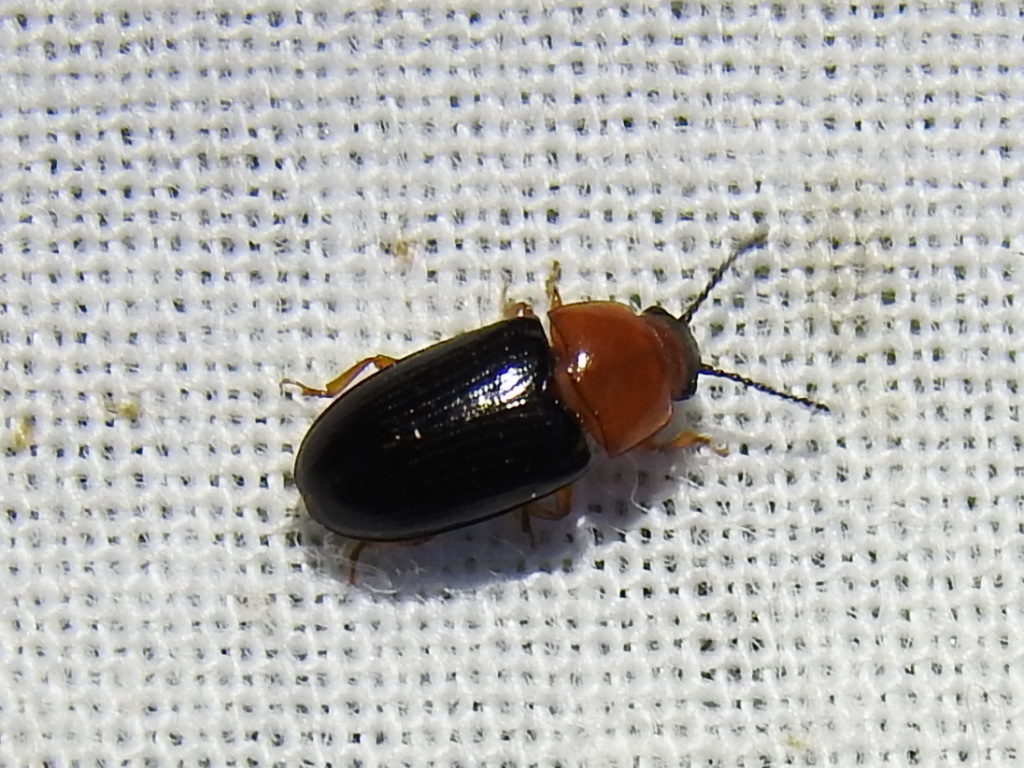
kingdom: Animalia
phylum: Arthropoda
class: Insecta
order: Coleoptera
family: Erotylidae
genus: Triplax
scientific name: Triplax frontalis
